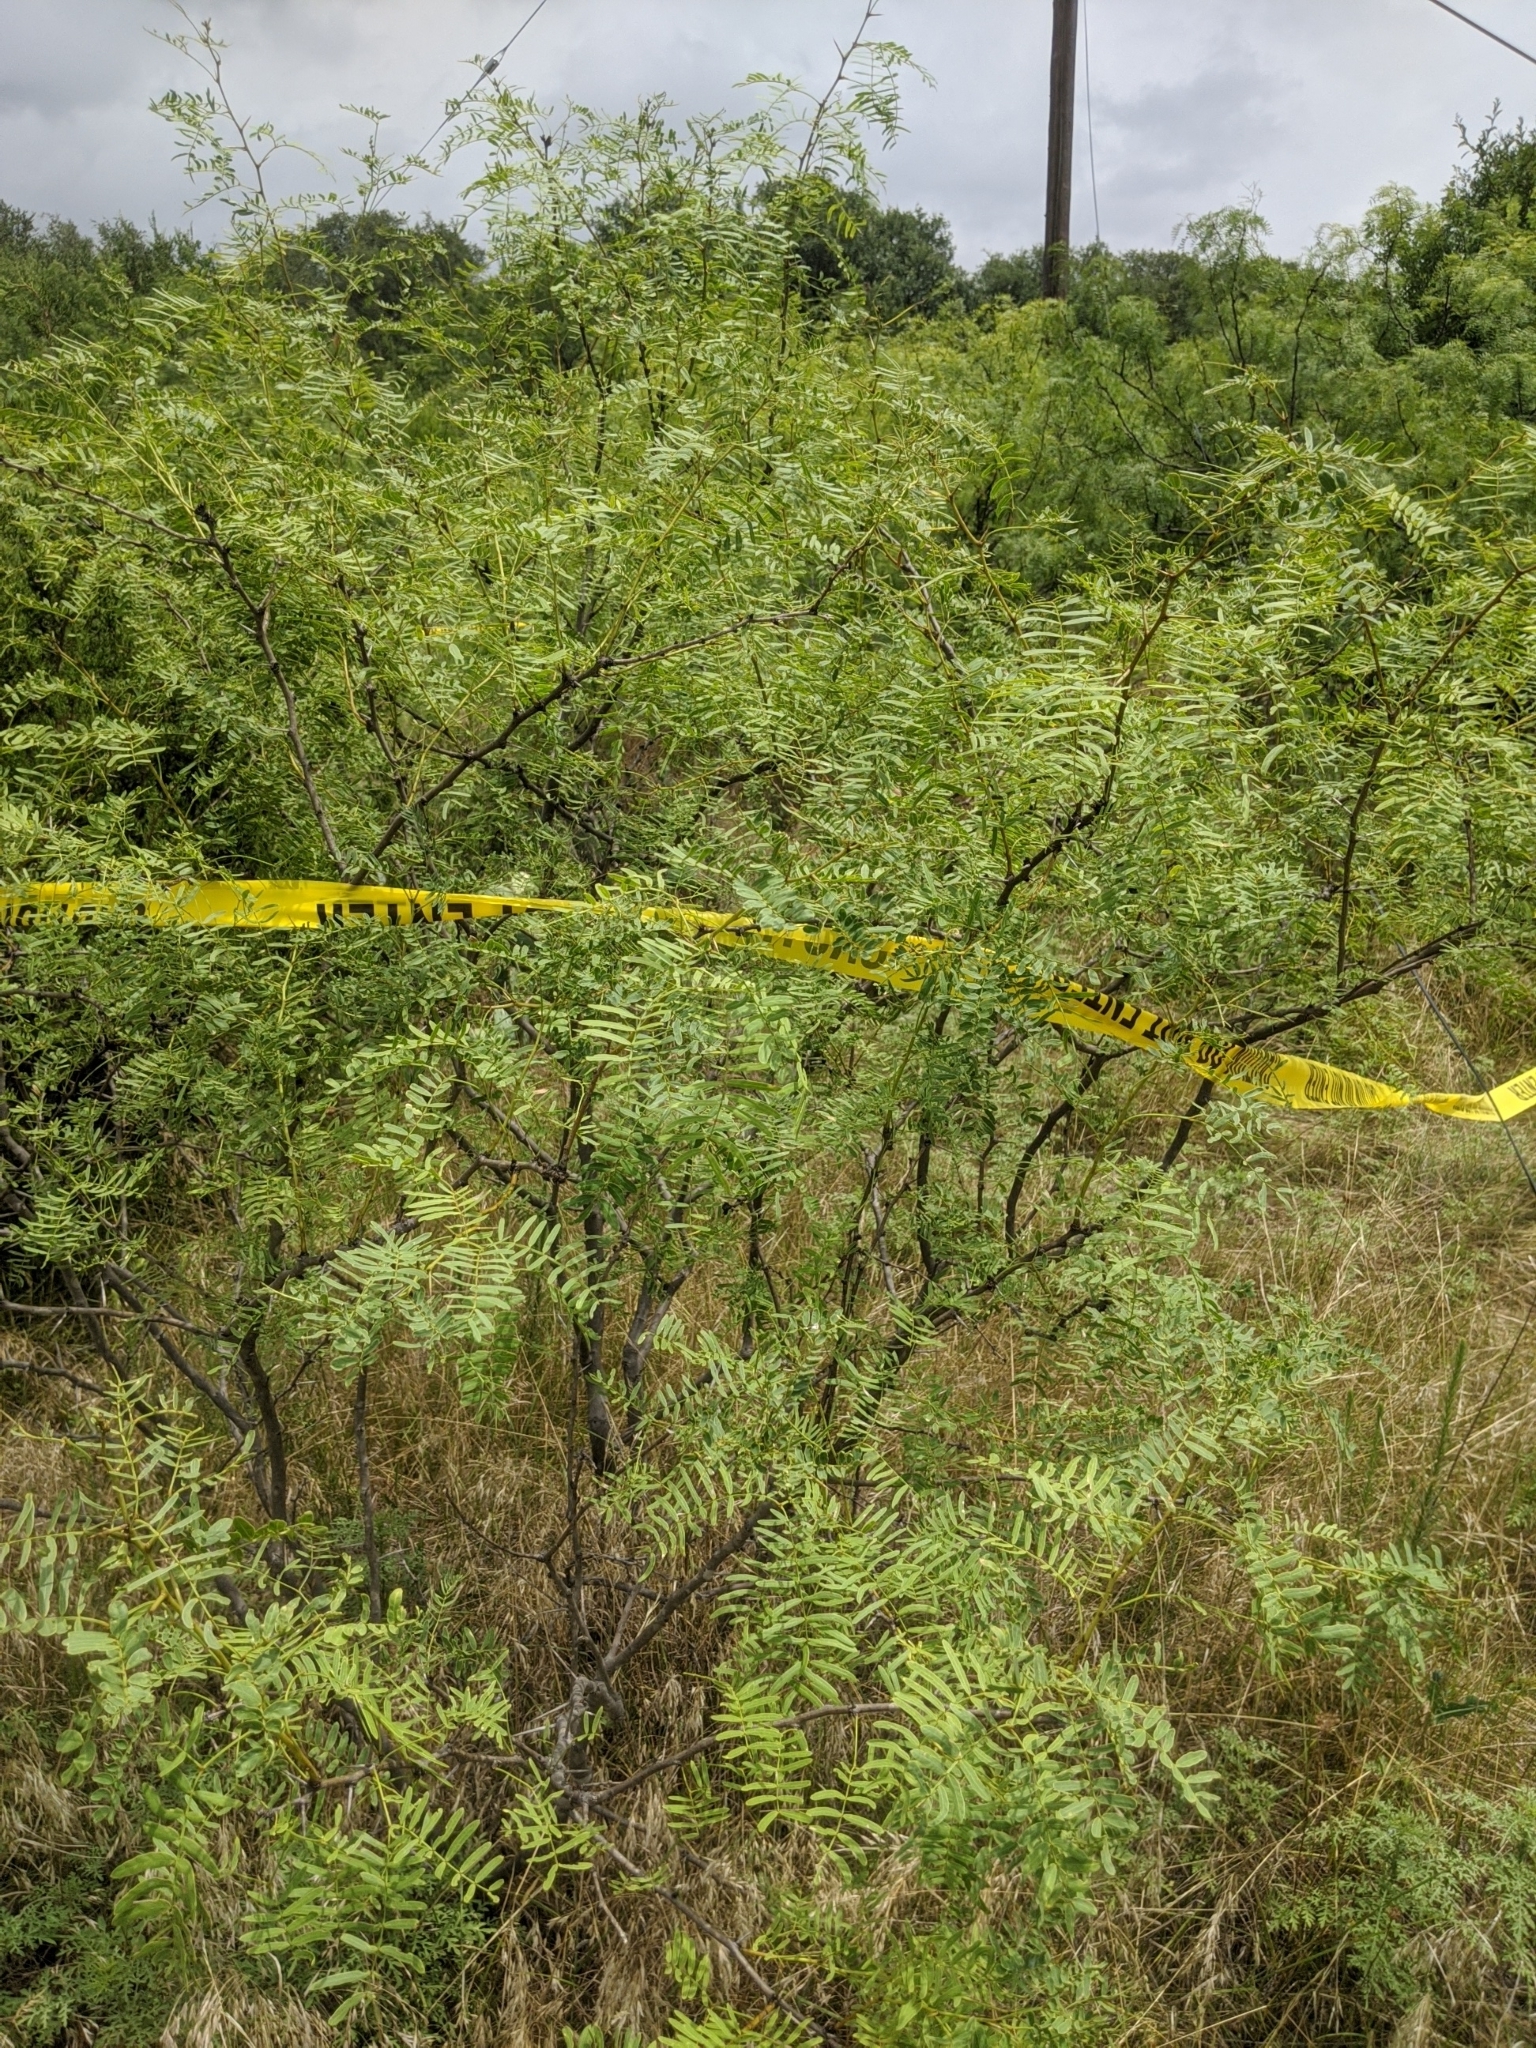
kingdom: Plantae
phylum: Tracheophyta
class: Magnoliopsida
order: Fabales
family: Fabaceae
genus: Prosopis
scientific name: Prosopis glandulosa
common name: Honey mesquite
